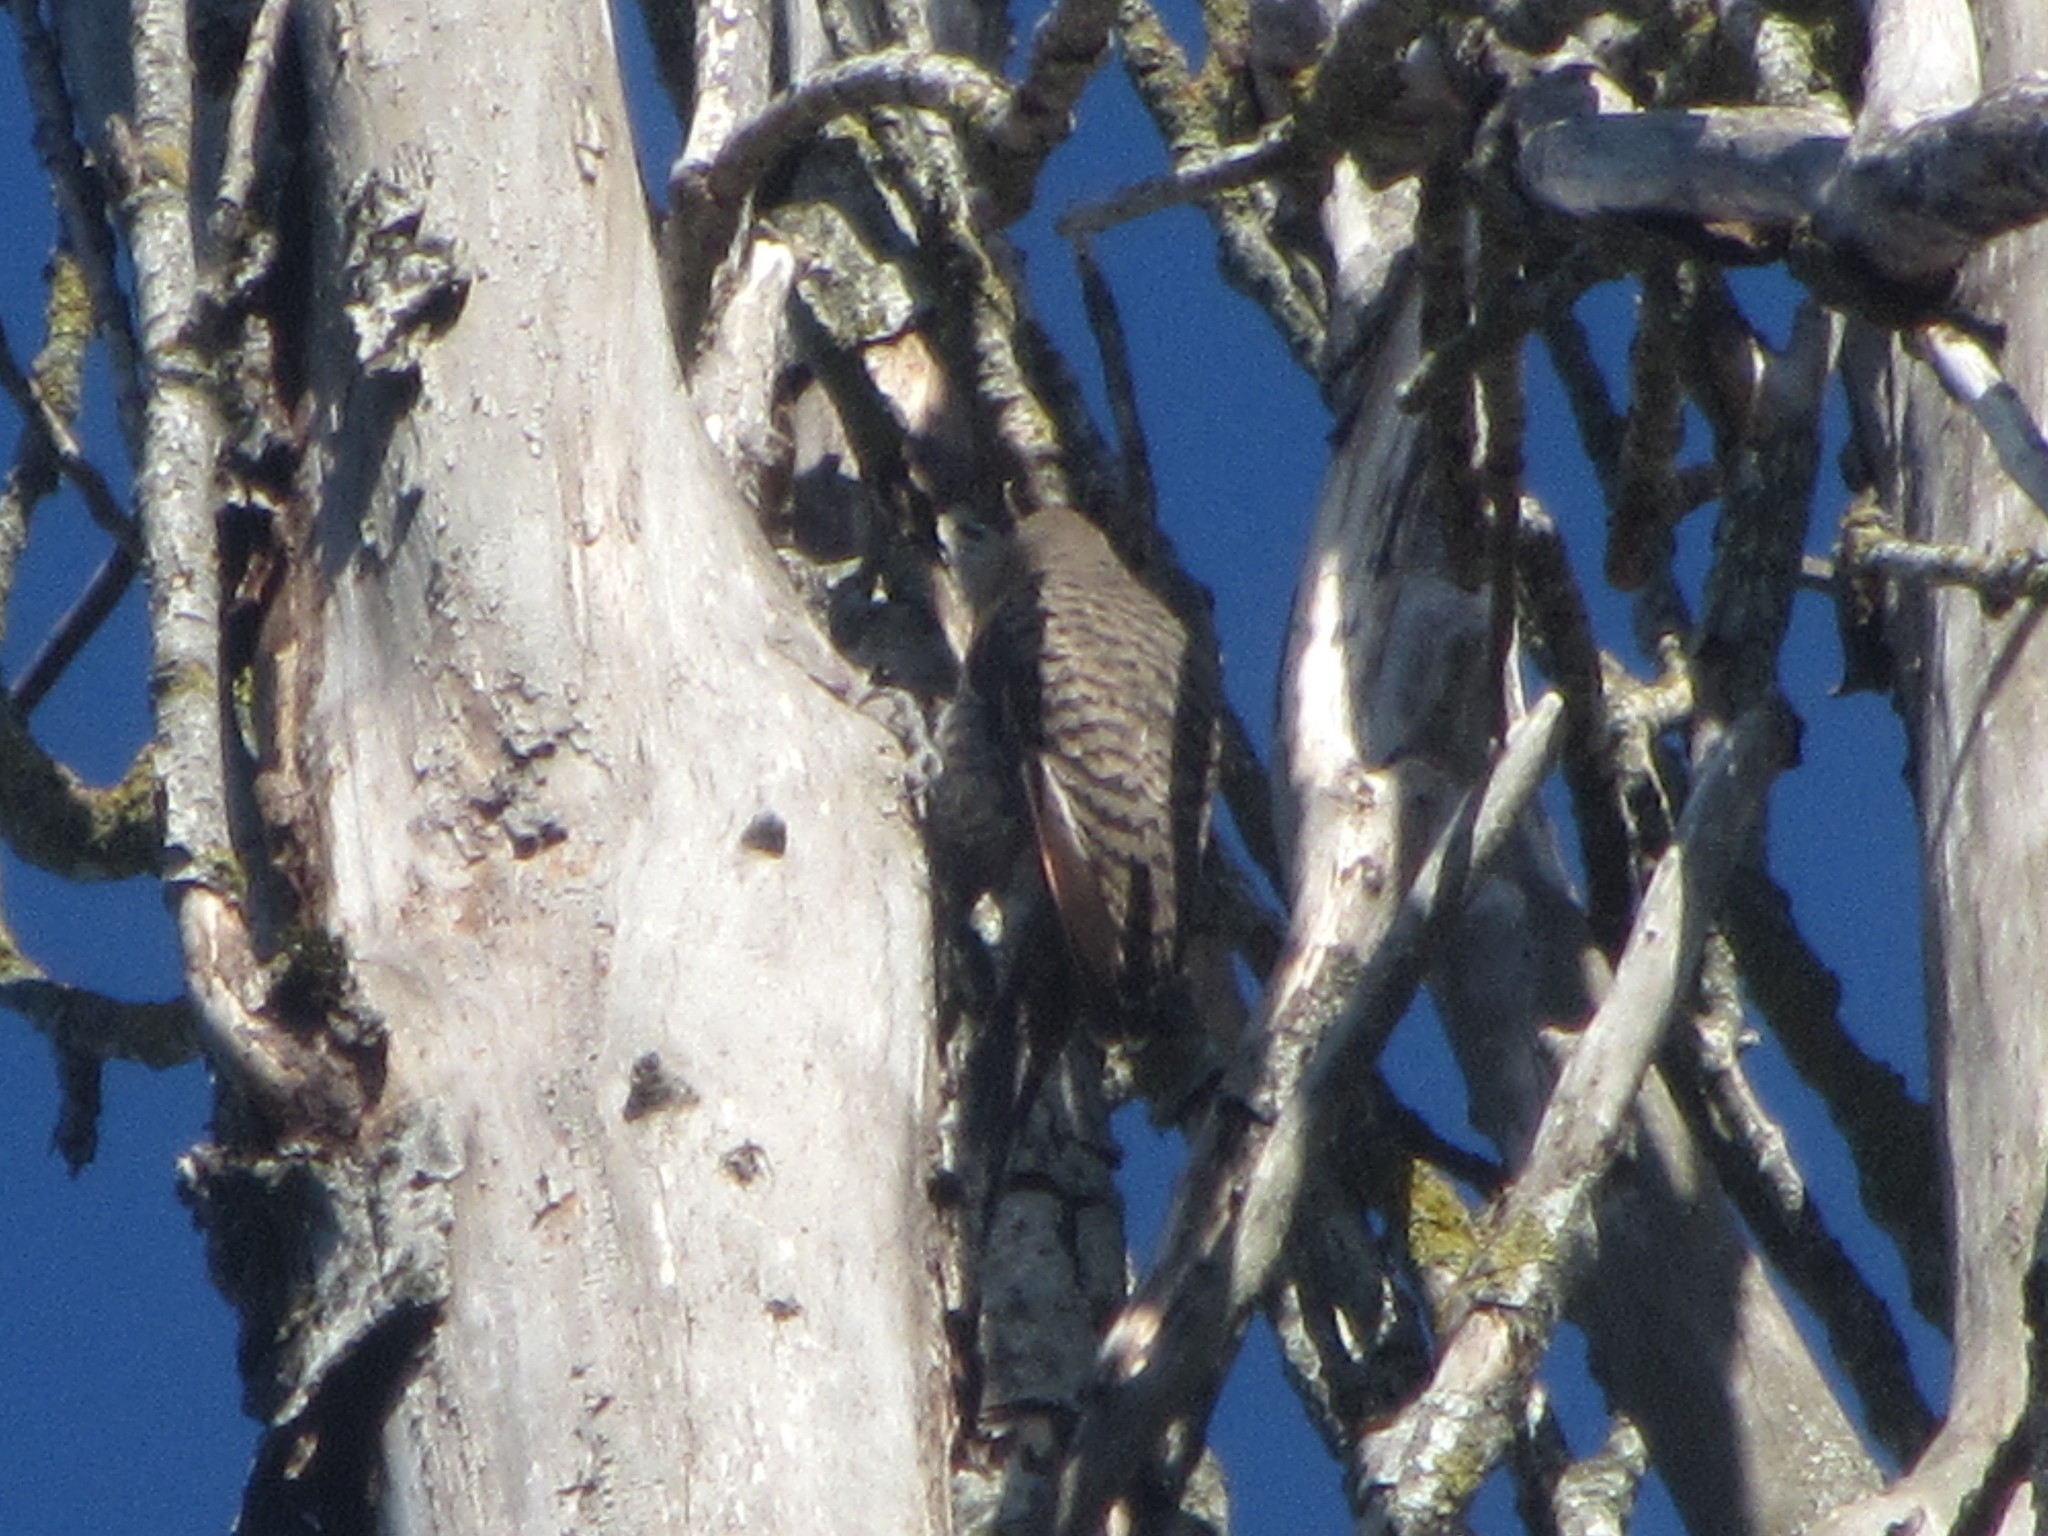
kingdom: Animalia
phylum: Chordata
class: Aves
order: Piciformes
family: Picidae
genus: Colaptes
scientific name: Colaptes auratus
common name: Northern flicker
